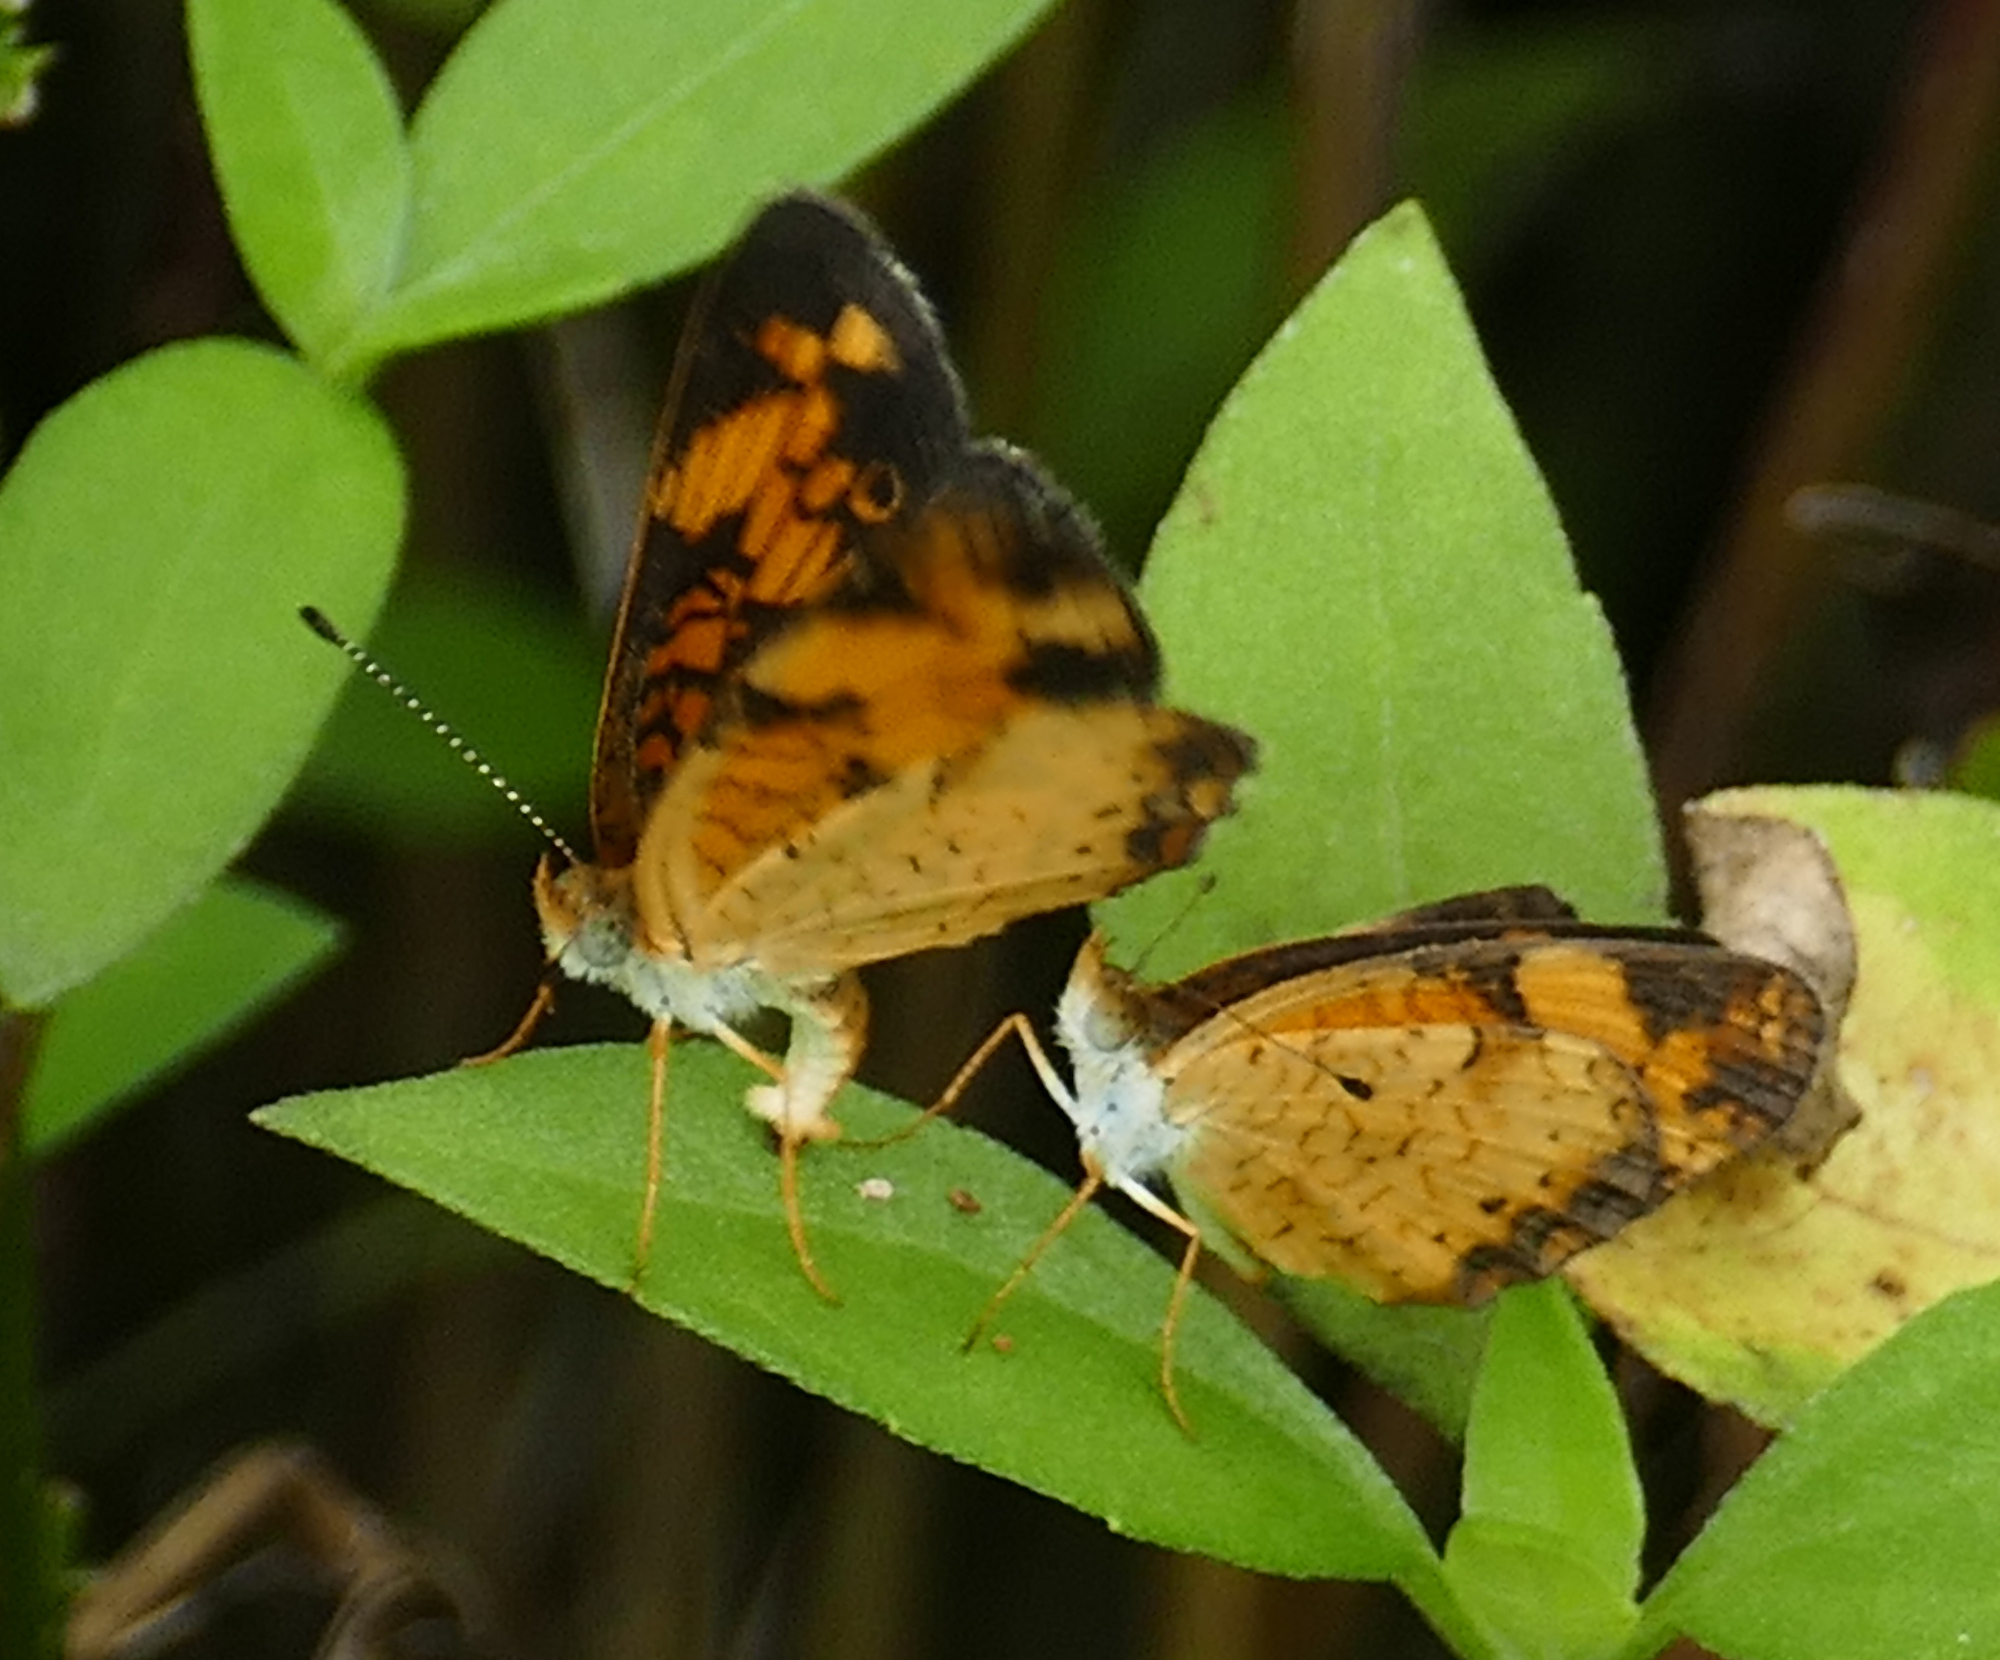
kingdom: Animalia
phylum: Arthropoda
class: Insecta
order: Lepidoptera
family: Nymphalidae
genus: Phyciodes
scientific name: Phyciodes tharos
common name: Pearl crescent
